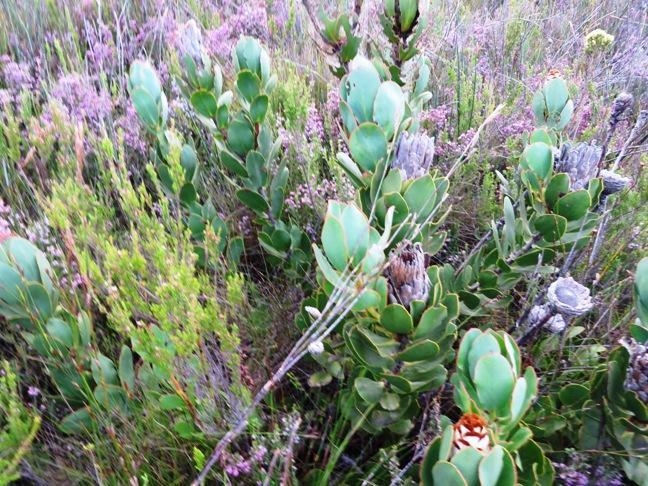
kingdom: Plantae
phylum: Tracheophyta
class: Magnoliopsida
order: Proteales
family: Proteaceae
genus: Protea
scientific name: Protea speciosa
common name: Brown-beard sugarbush
